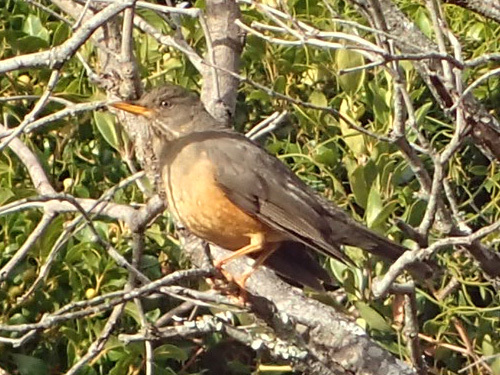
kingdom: Animalia
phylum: Chordata
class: Aves
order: Passeriformes
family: Turdidae
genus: Turdus
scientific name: Turdus olivaceus
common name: Olive thrush
